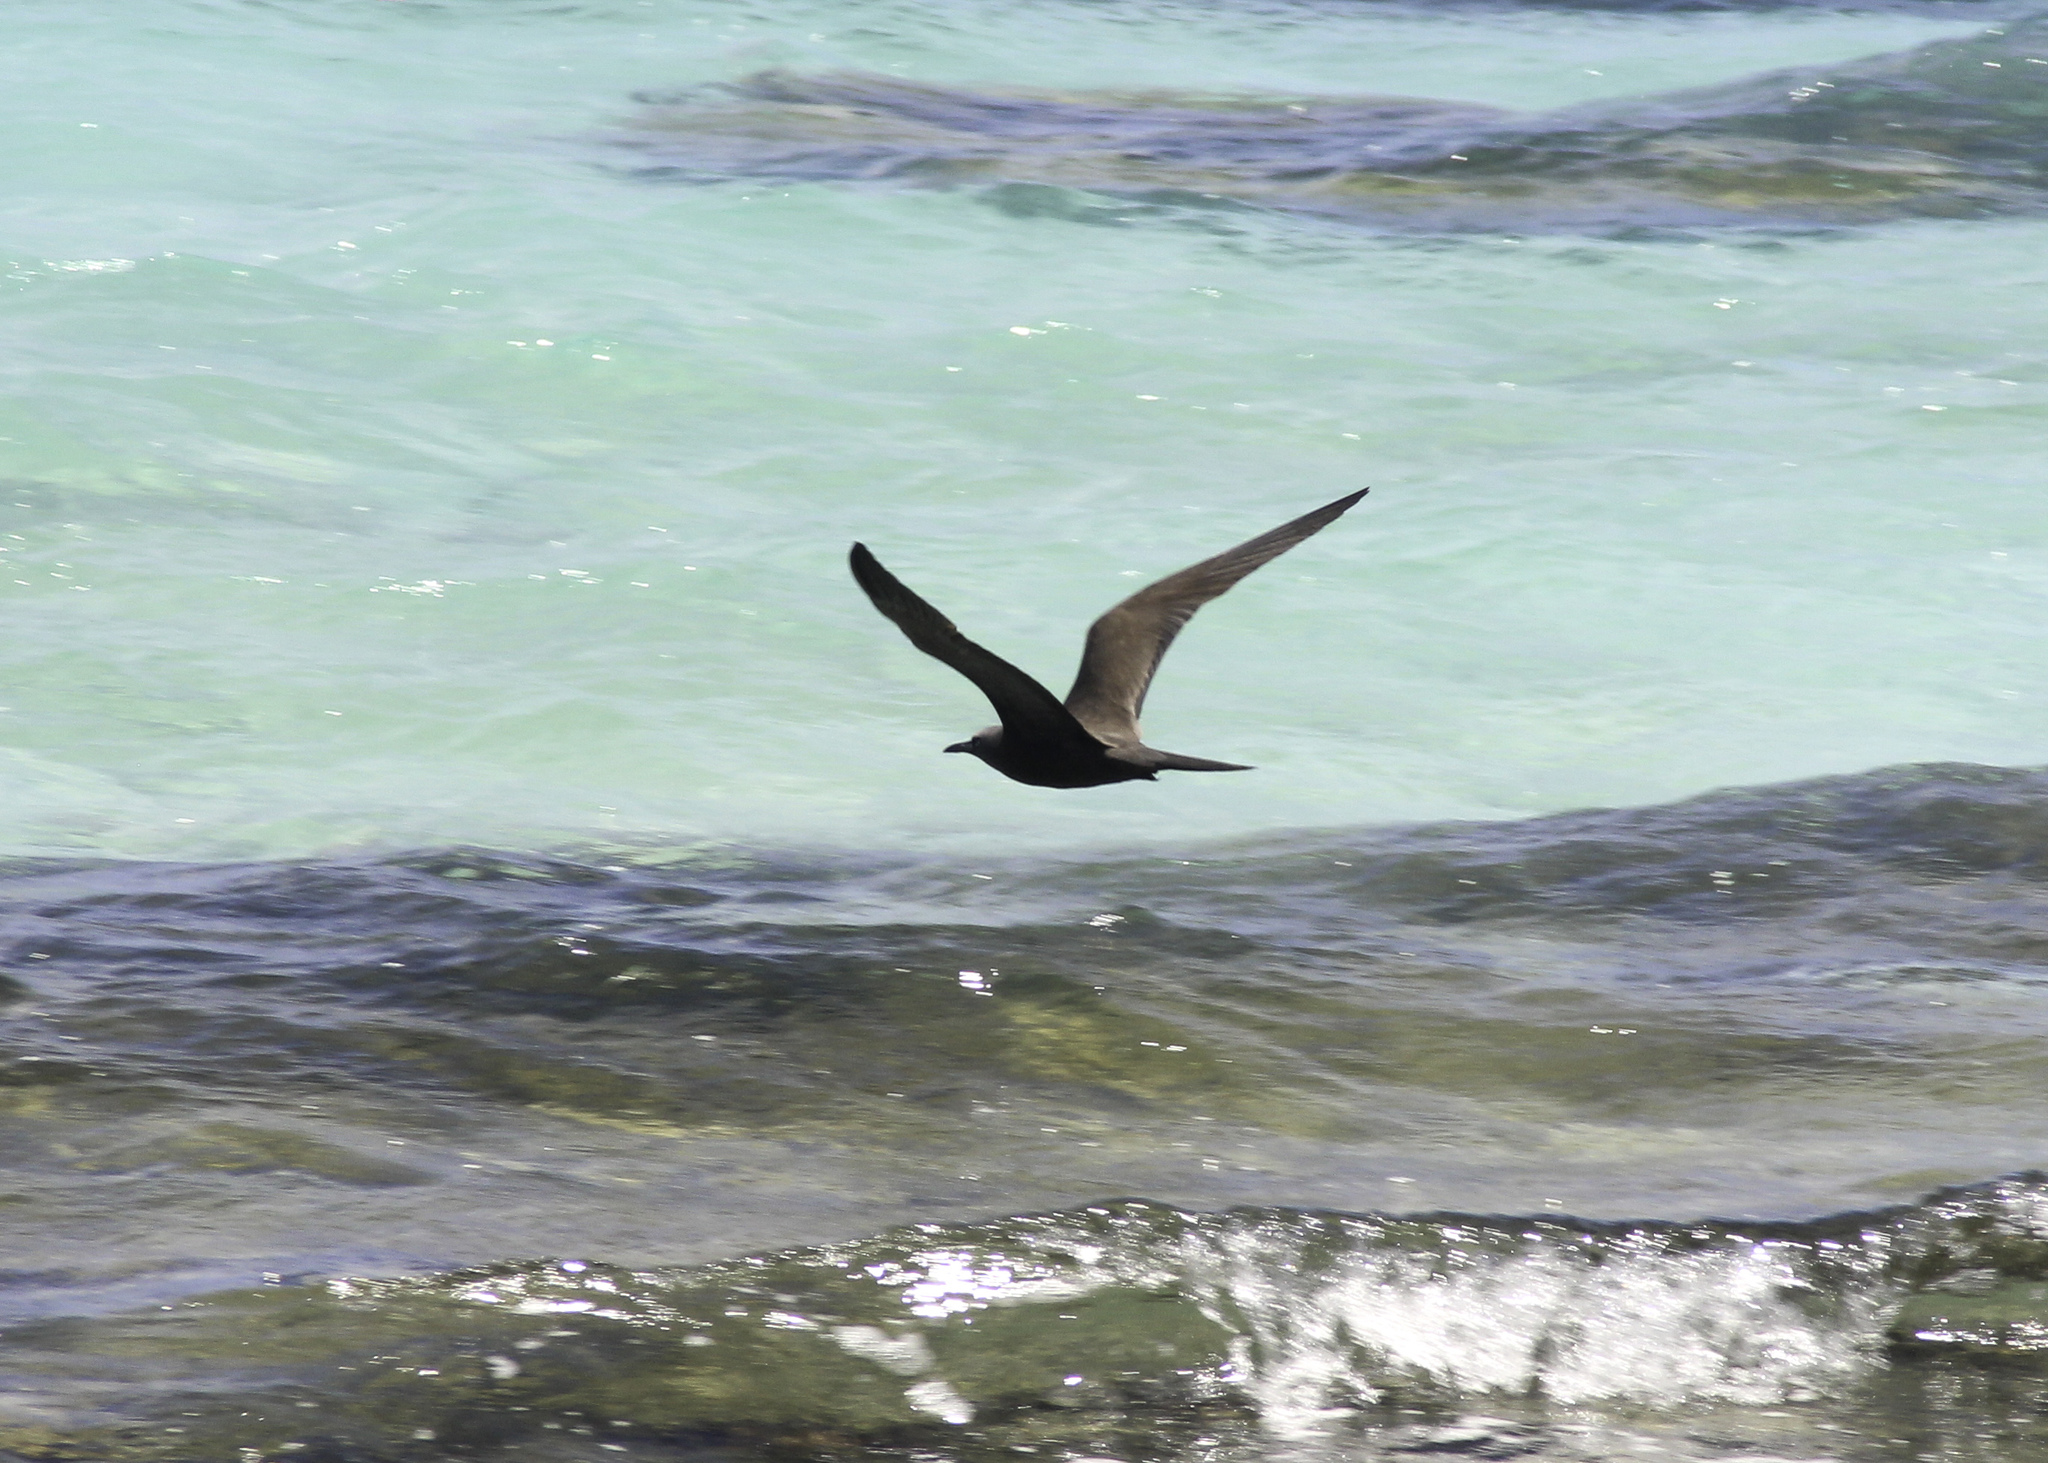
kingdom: Animalia
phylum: Chordata
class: Aves
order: Charadriiformes
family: Laridae
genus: Anous
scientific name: Anous stolidus
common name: Brown noddy
